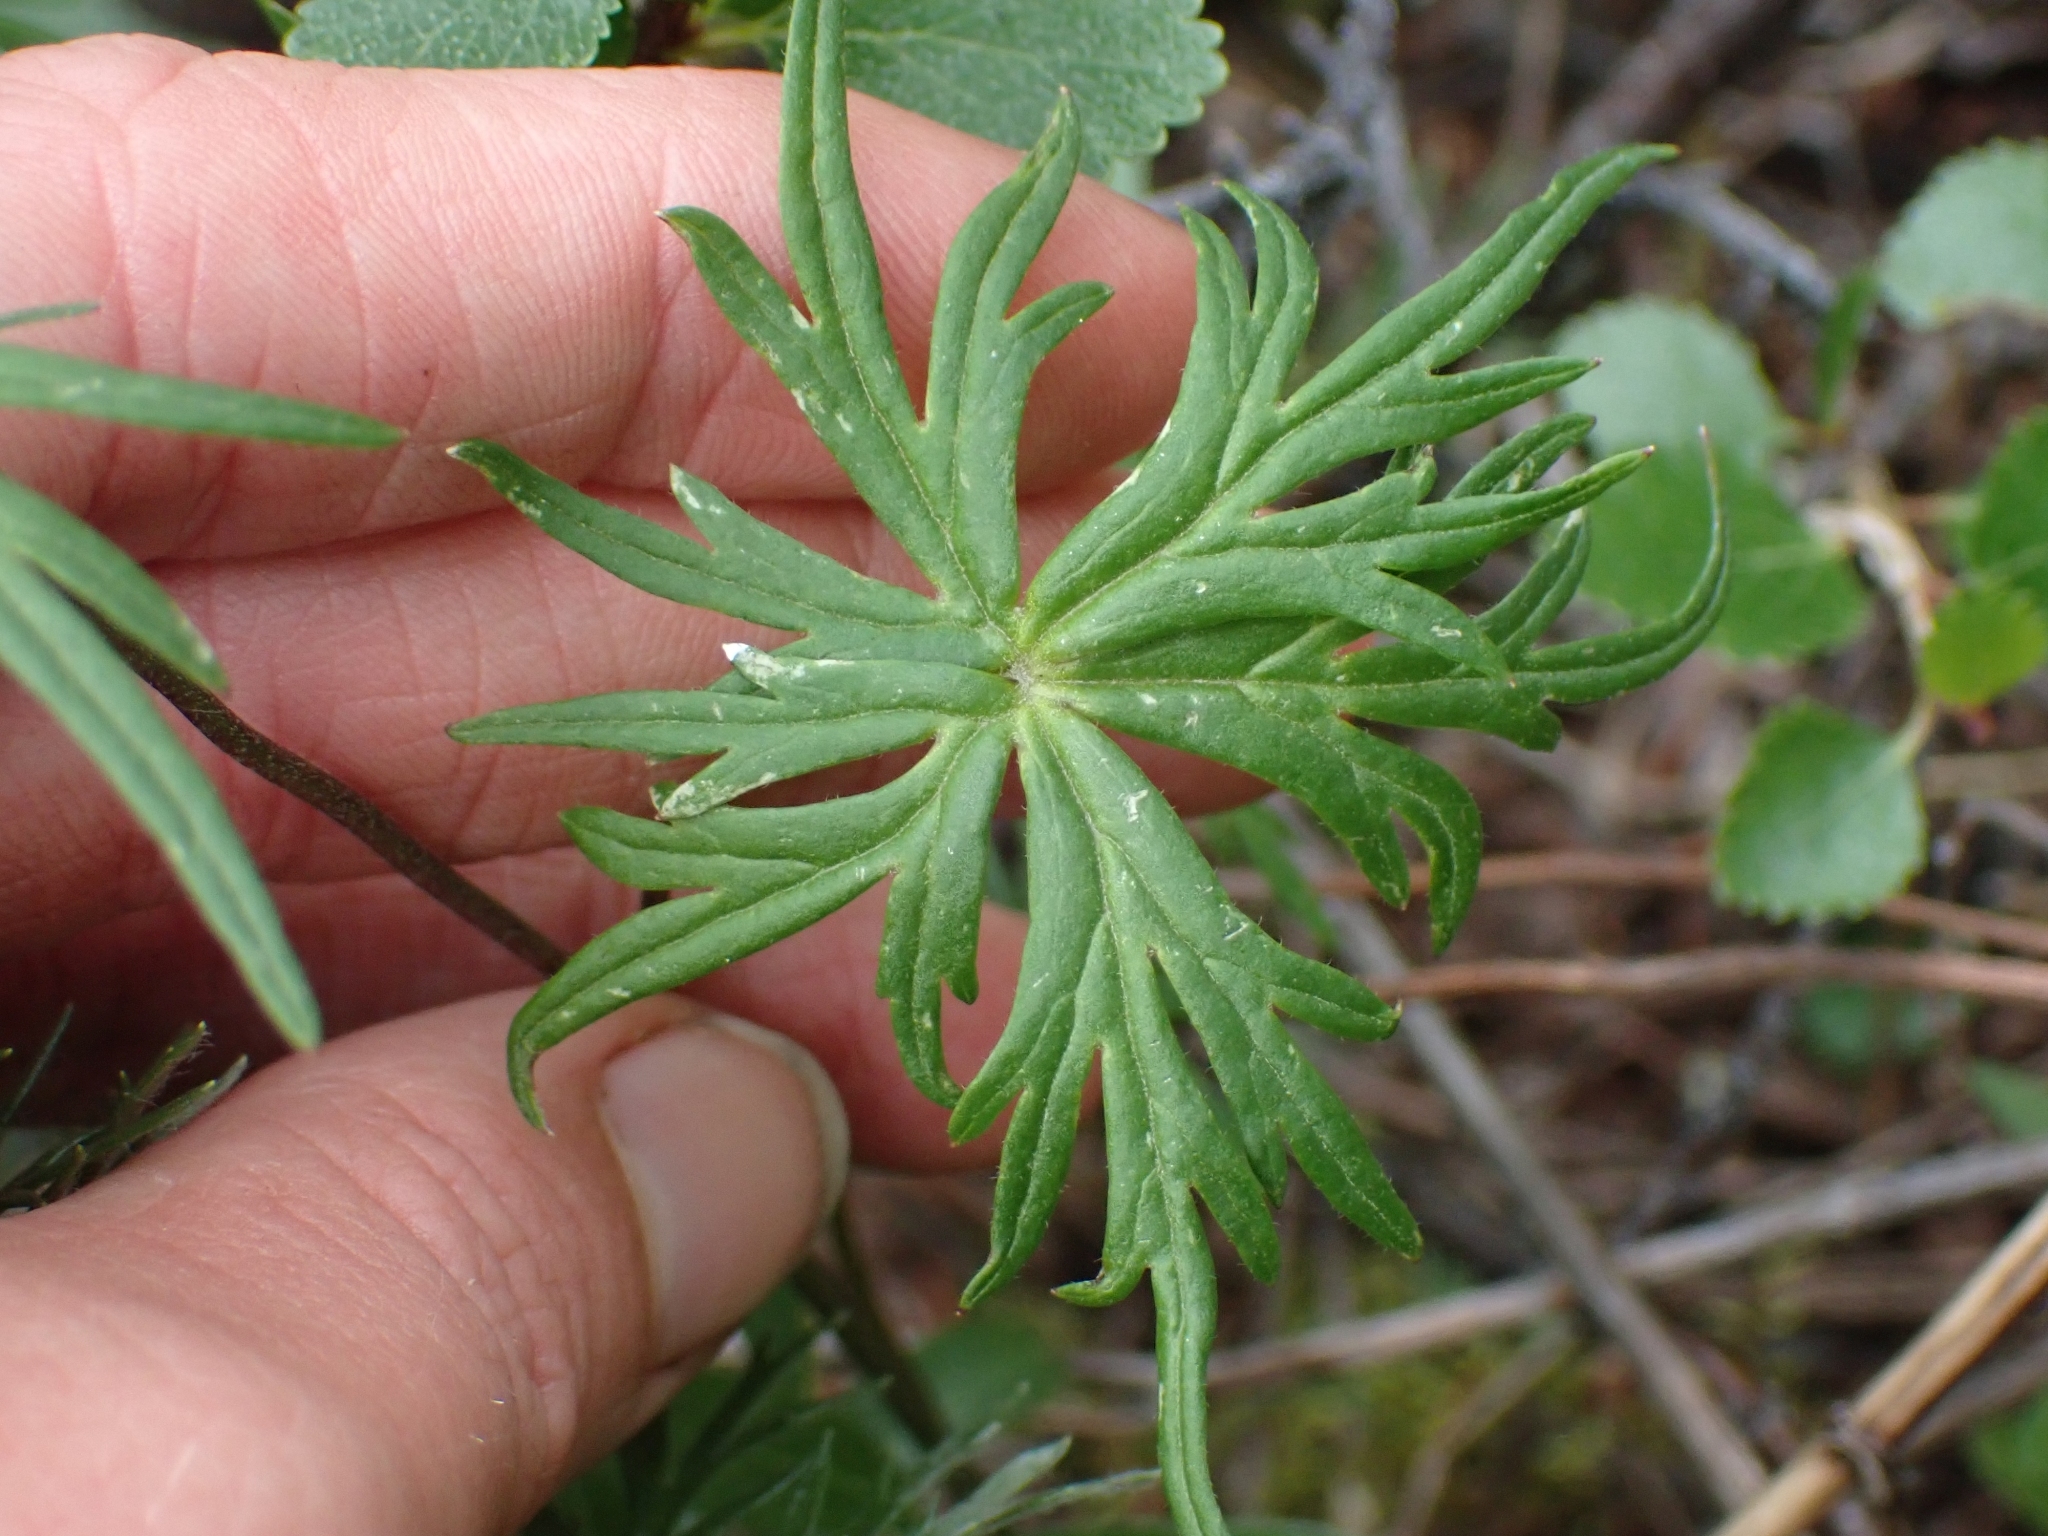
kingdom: Plantae
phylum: Tracheophyta
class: Magnoliopsida
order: Ranunculales
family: Ranunculaceae
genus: Aconitum
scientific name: Aconitum delphiniifolium
